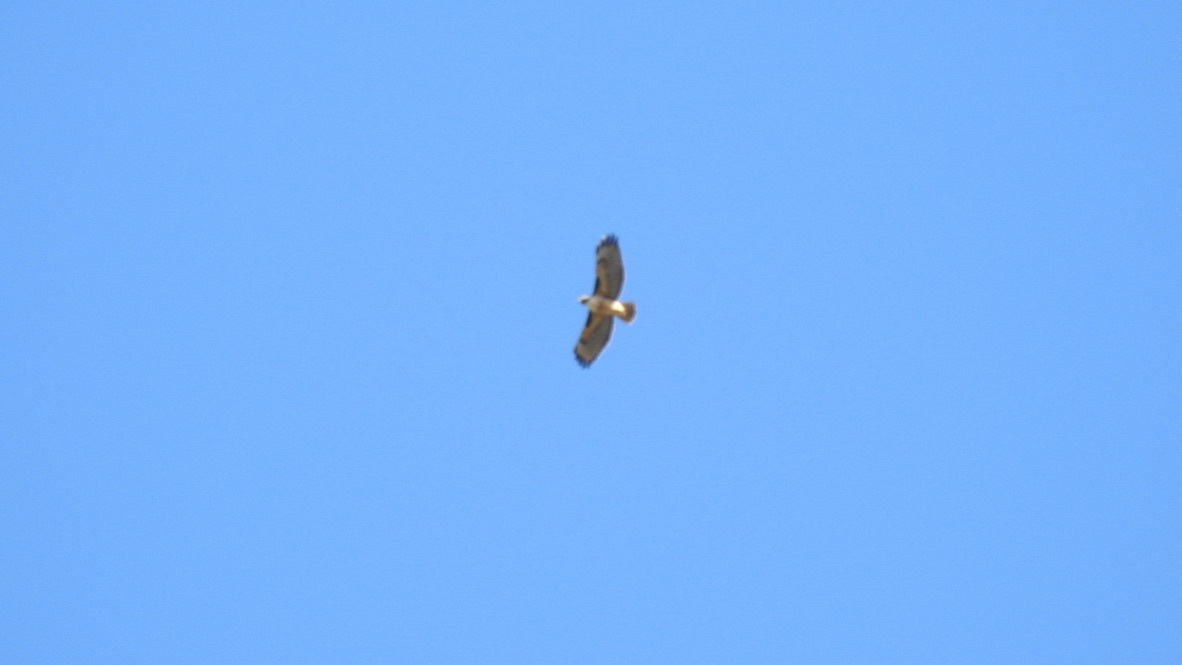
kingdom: Animalia
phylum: Chordata
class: Aves
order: Accipitriformes
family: Accipitridae
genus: Buteo
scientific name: Buteo jamaicensis
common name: Red-tailed hawk
